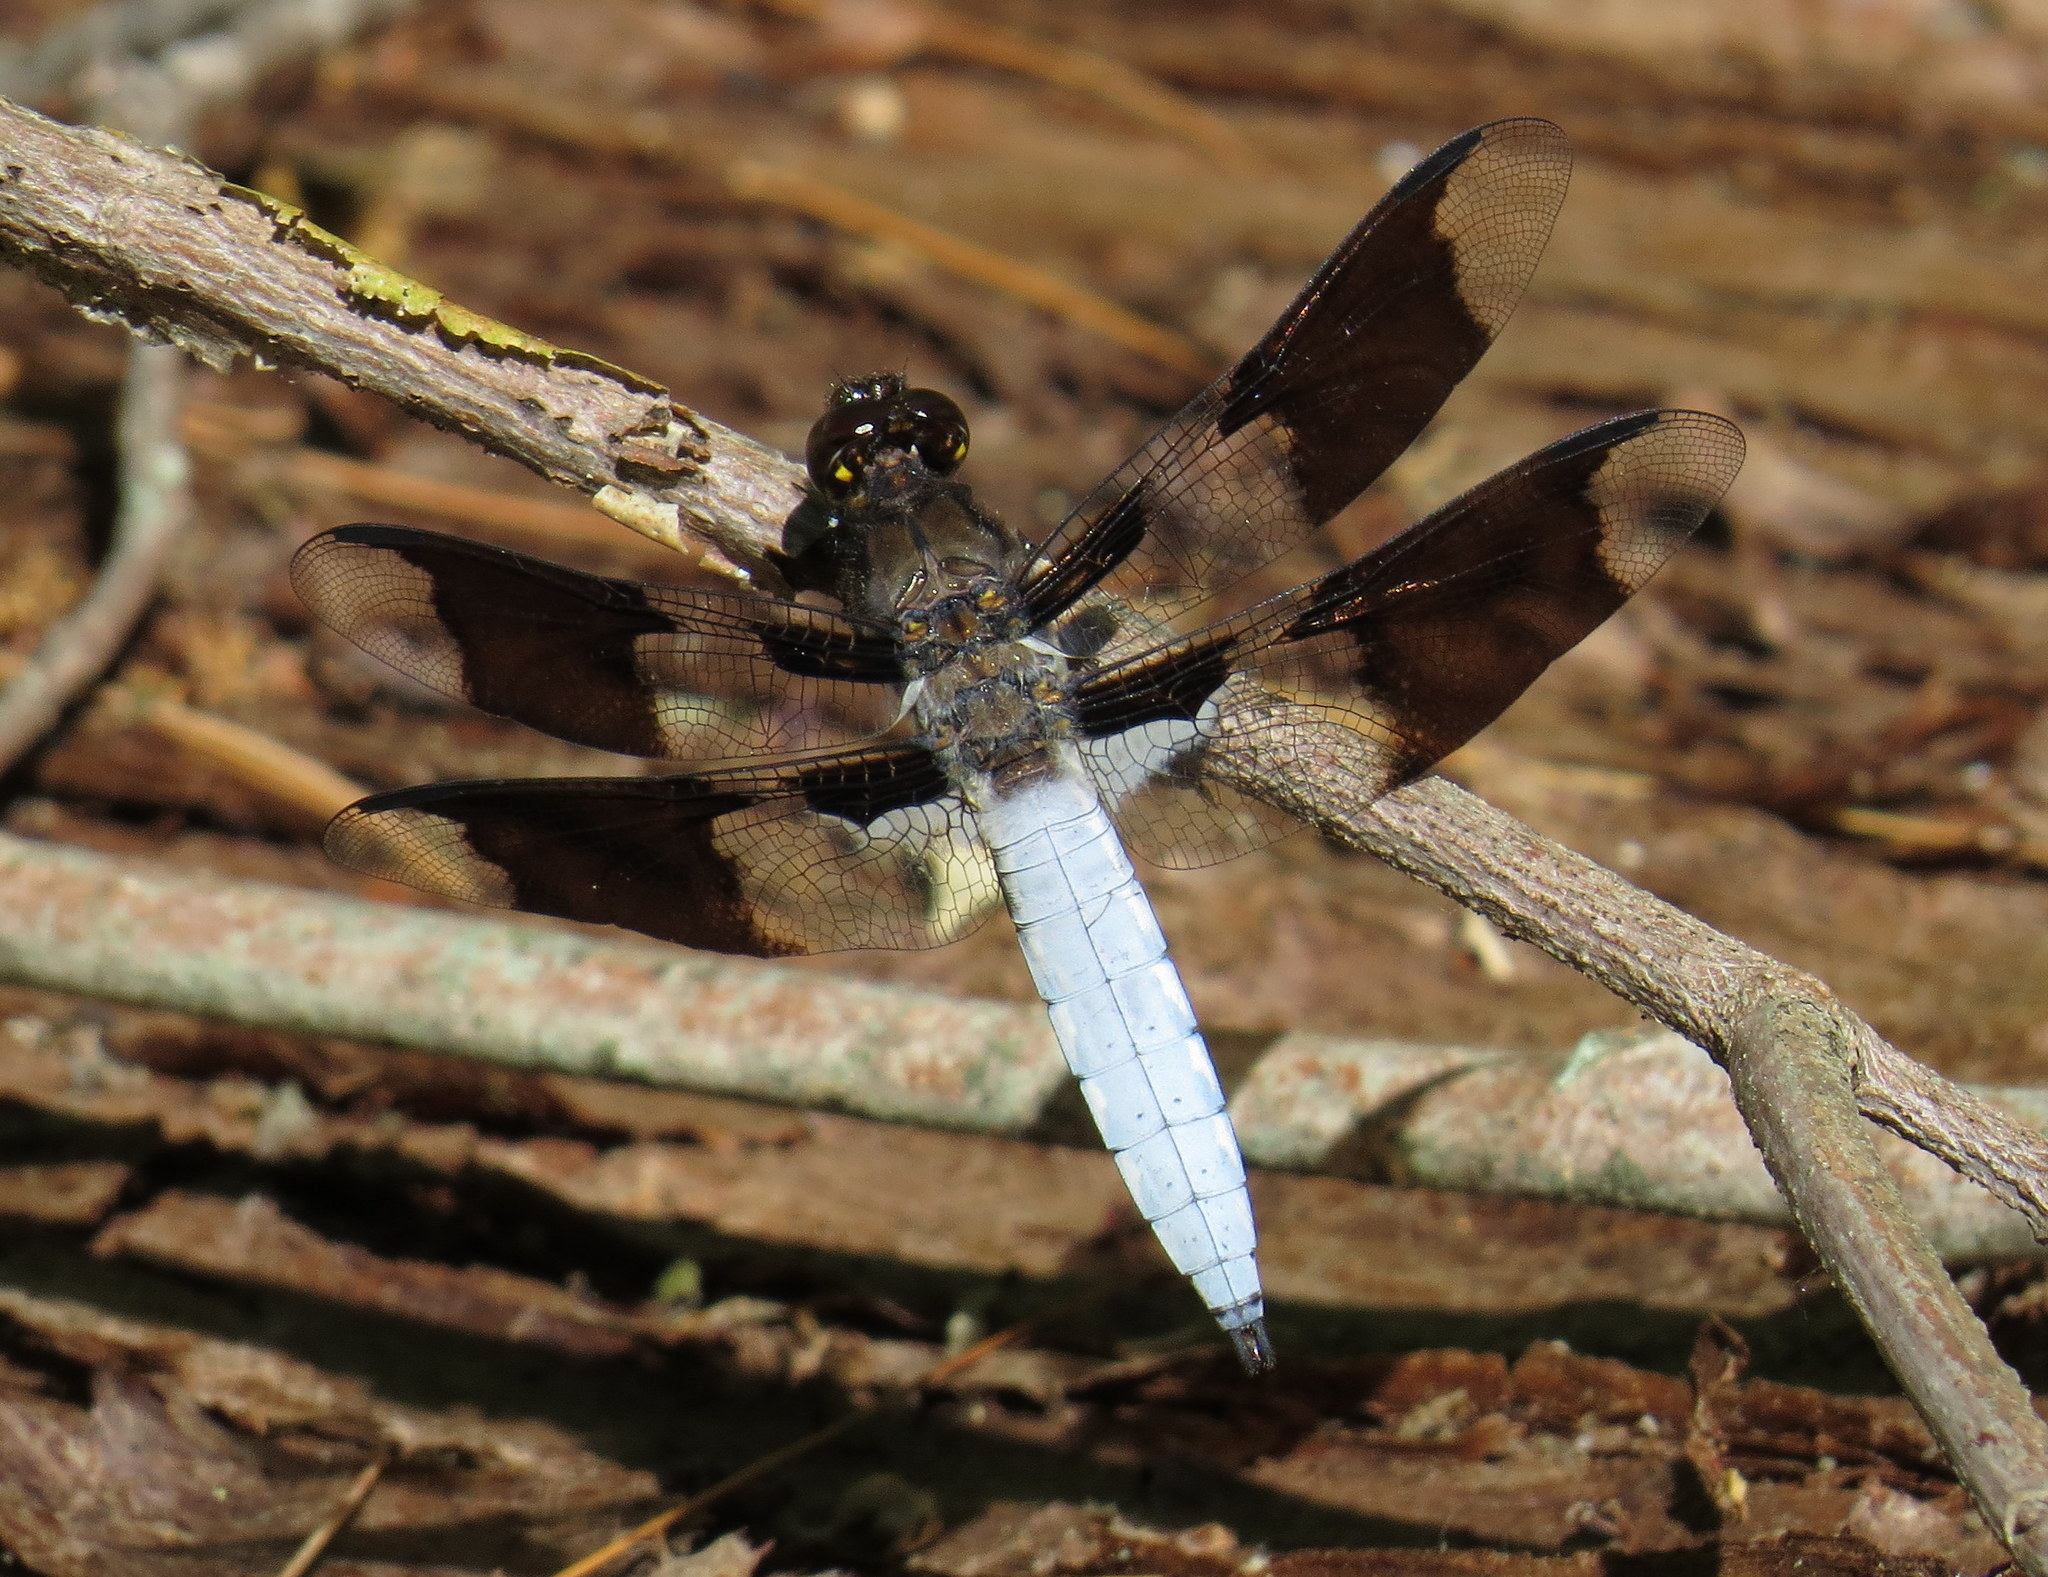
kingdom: Animalia
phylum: Arthropoda
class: Insecta
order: Odonata
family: Libellulidae
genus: Plathemis
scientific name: Plathemis lydia
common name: Common whitetail
